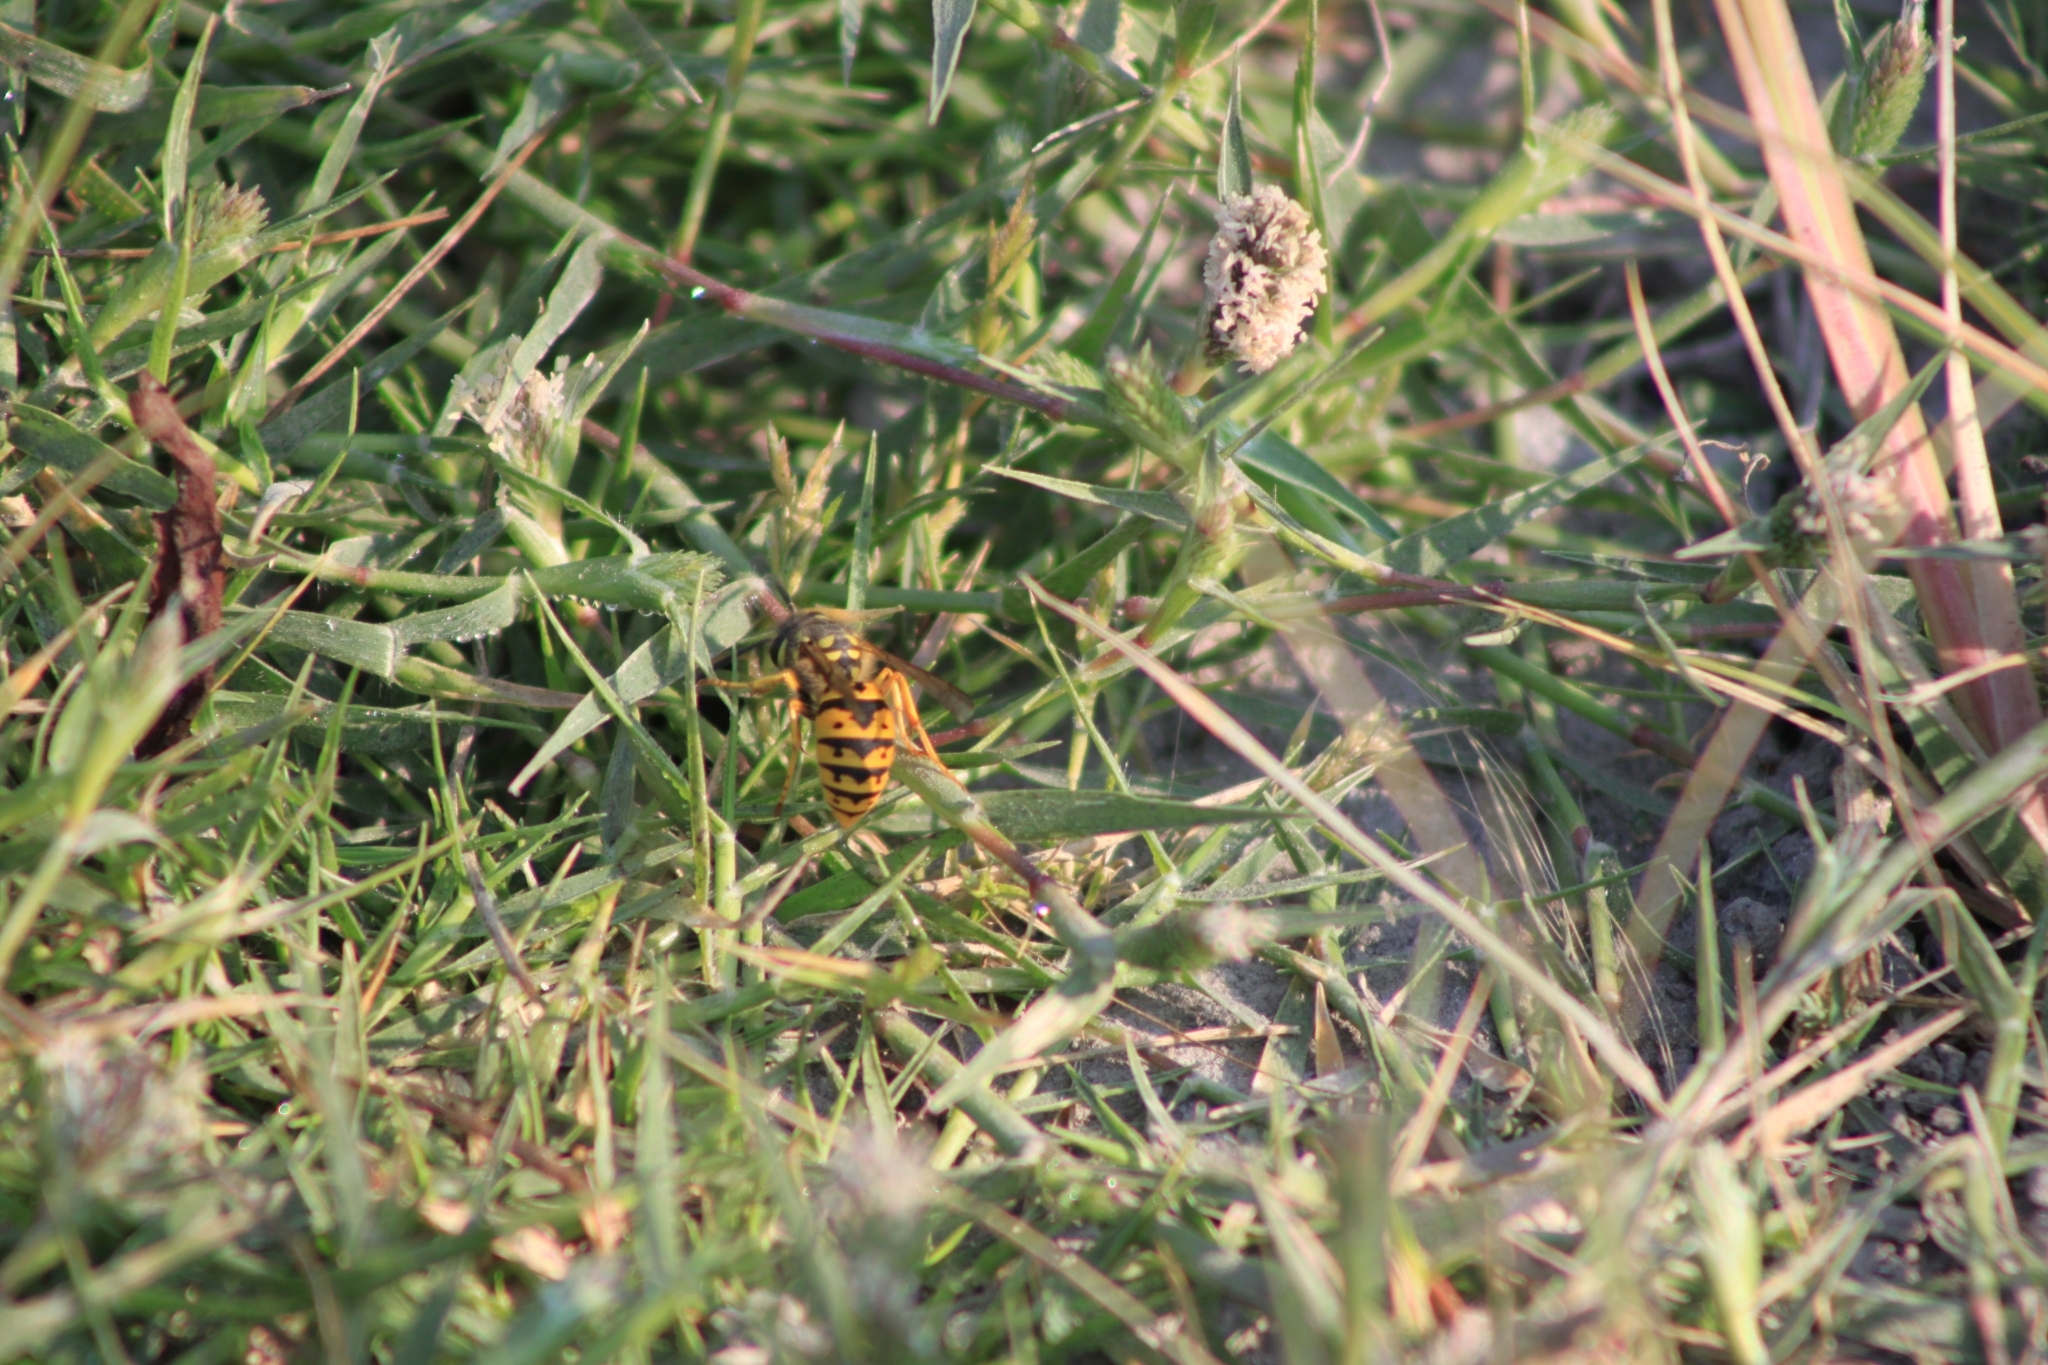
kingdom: Animalia
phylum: Arthropoda
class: Insecta
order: Hymenoptera
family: Vespidae
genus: Vespula
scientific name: Vespula germanica
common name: German wasp
